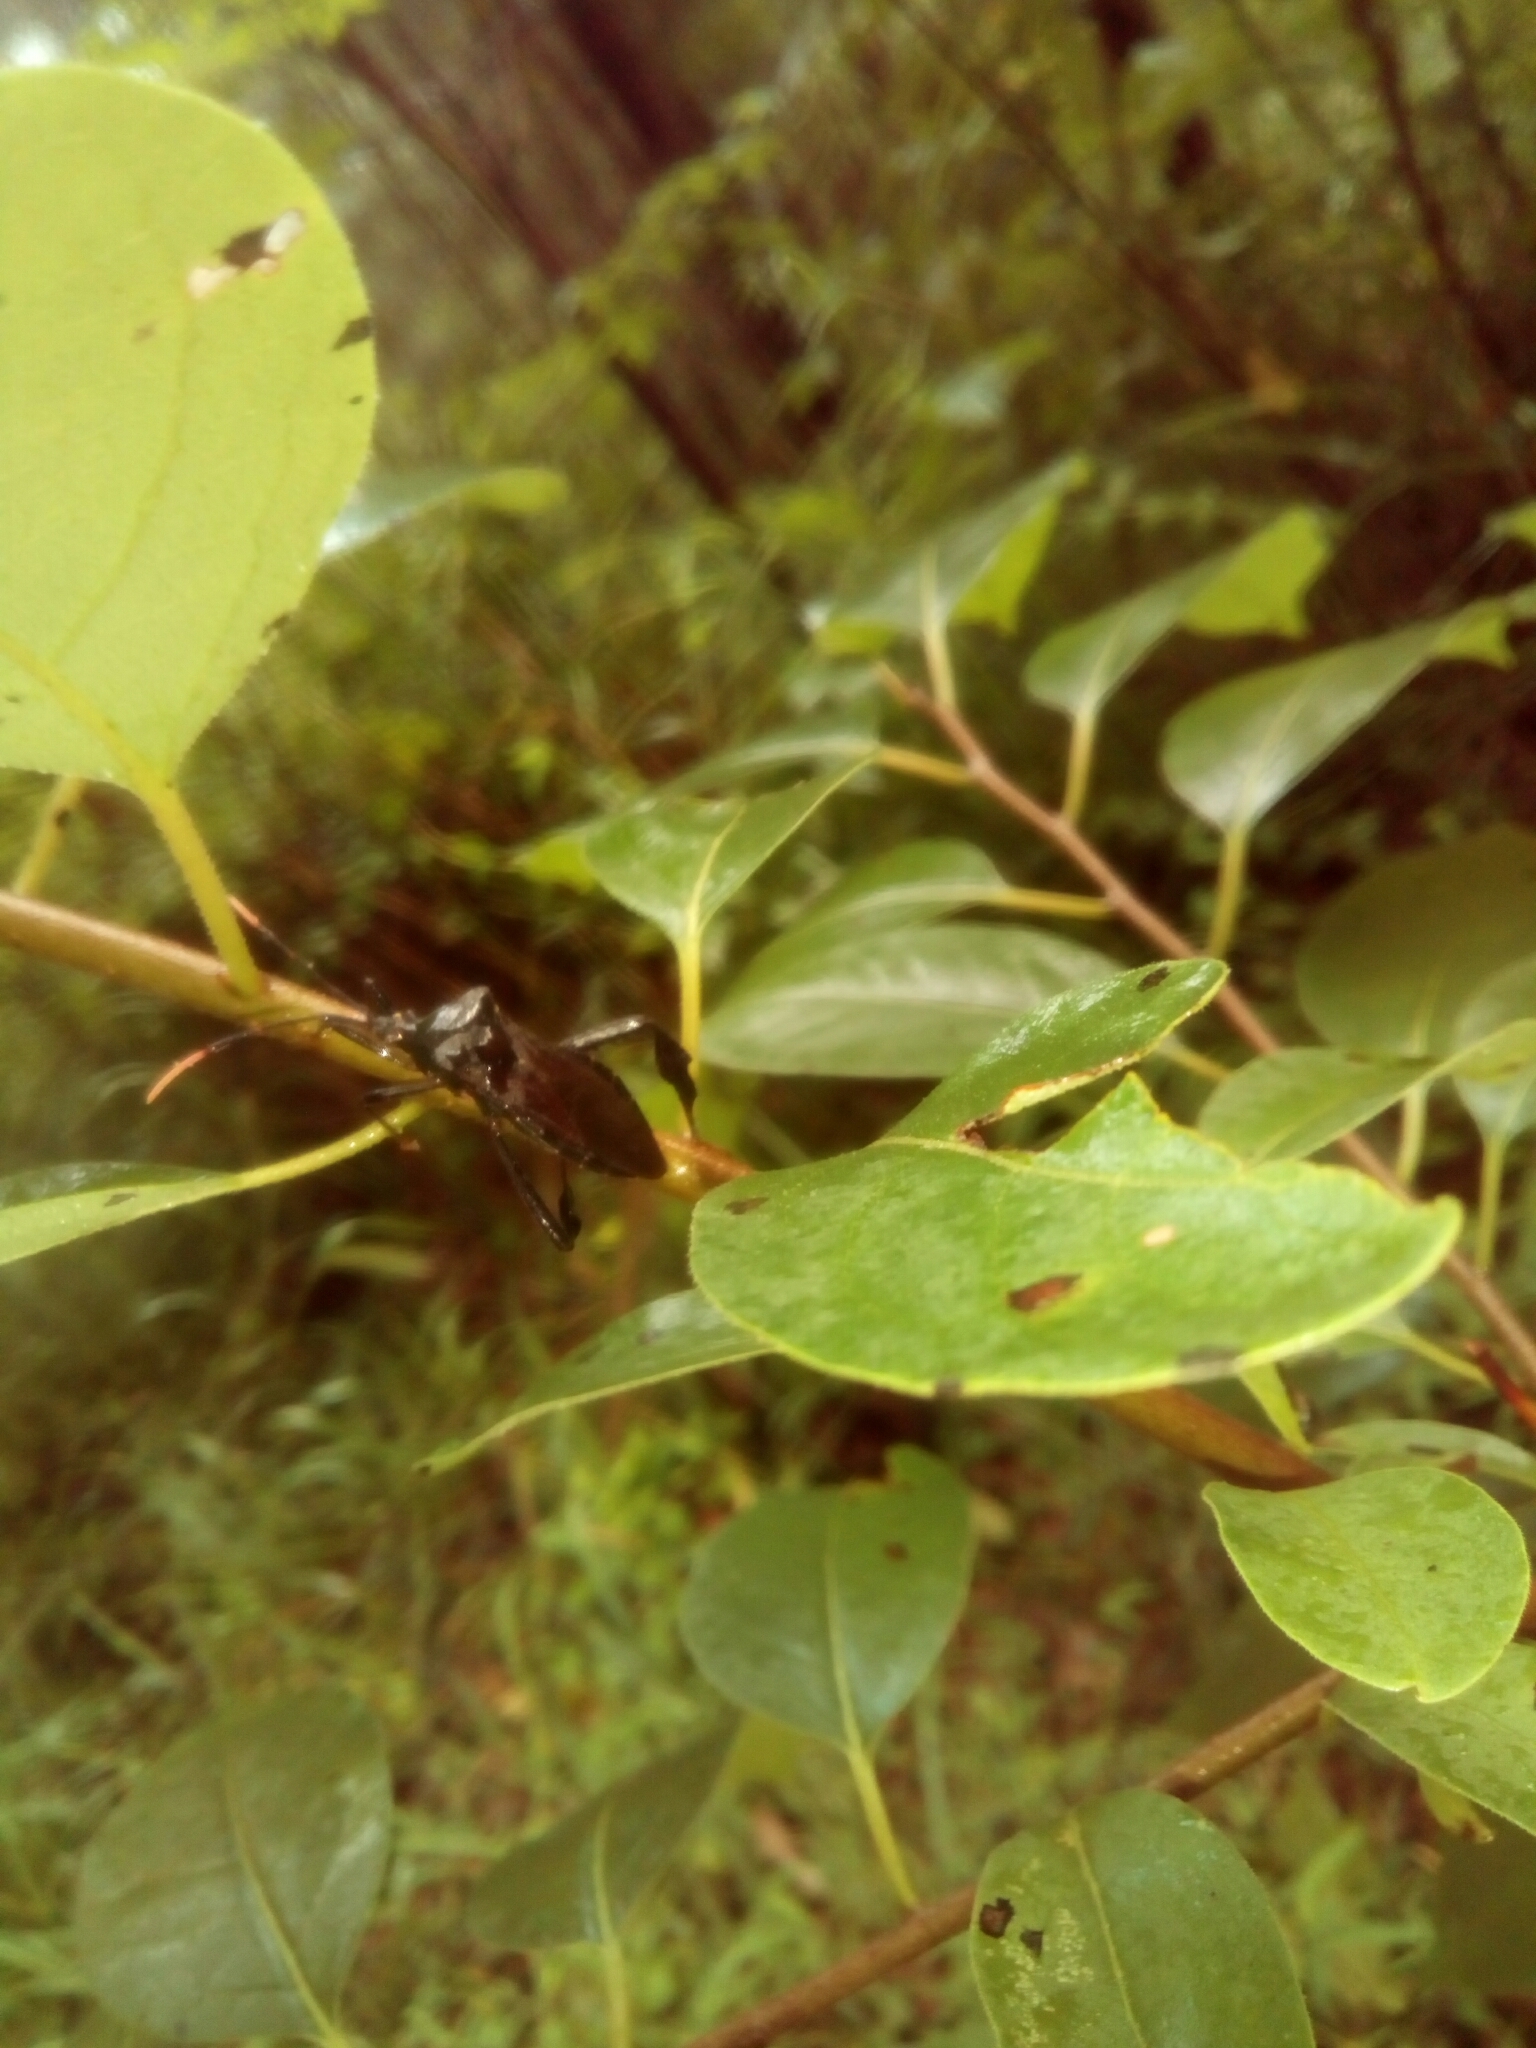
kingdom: Animalia
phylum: Arthropoda
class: Insecta
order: Hemiptera
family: Coreidae
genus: Acanthocephala
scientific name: Acanthocephala terminalis
